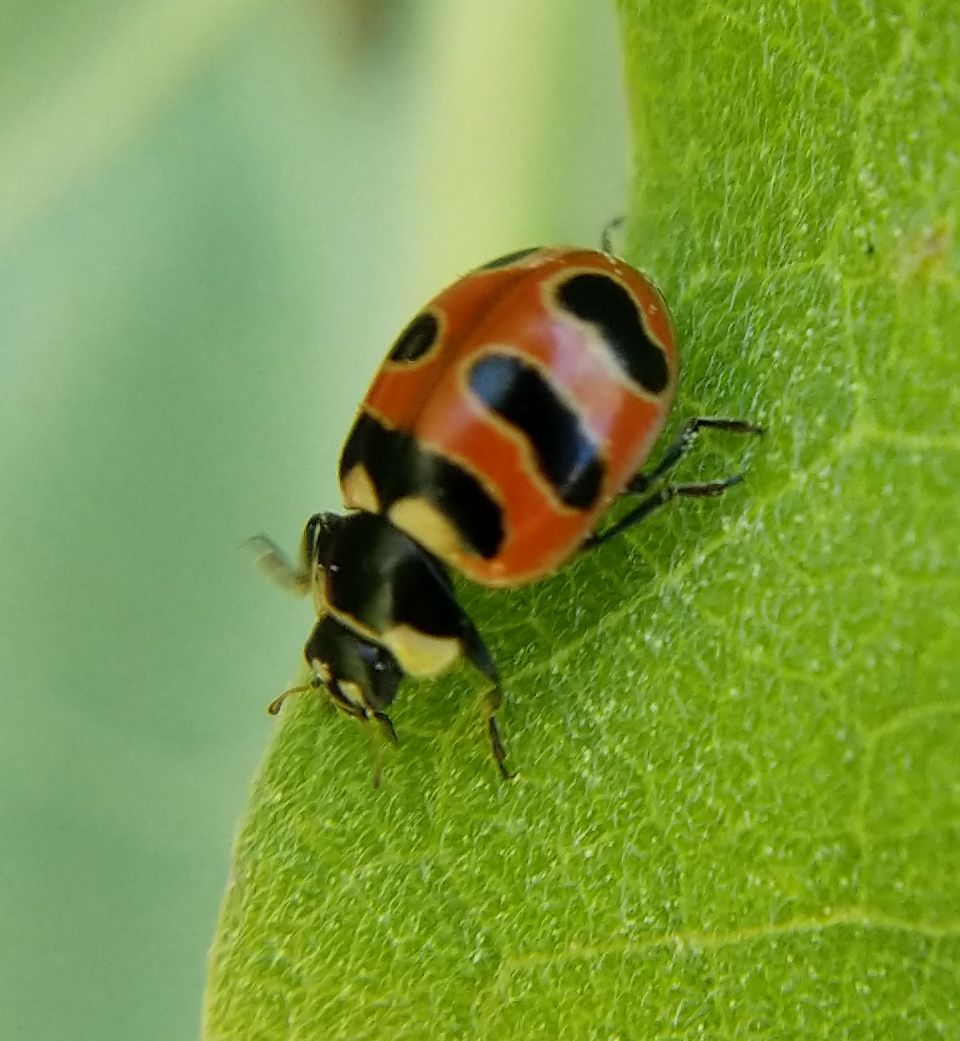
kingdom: Animalia
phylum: Arthropoda
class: Insecta
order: Coleoptera
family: Coccinellidae
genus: Coccinella
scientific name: Coccinella trifasciata
